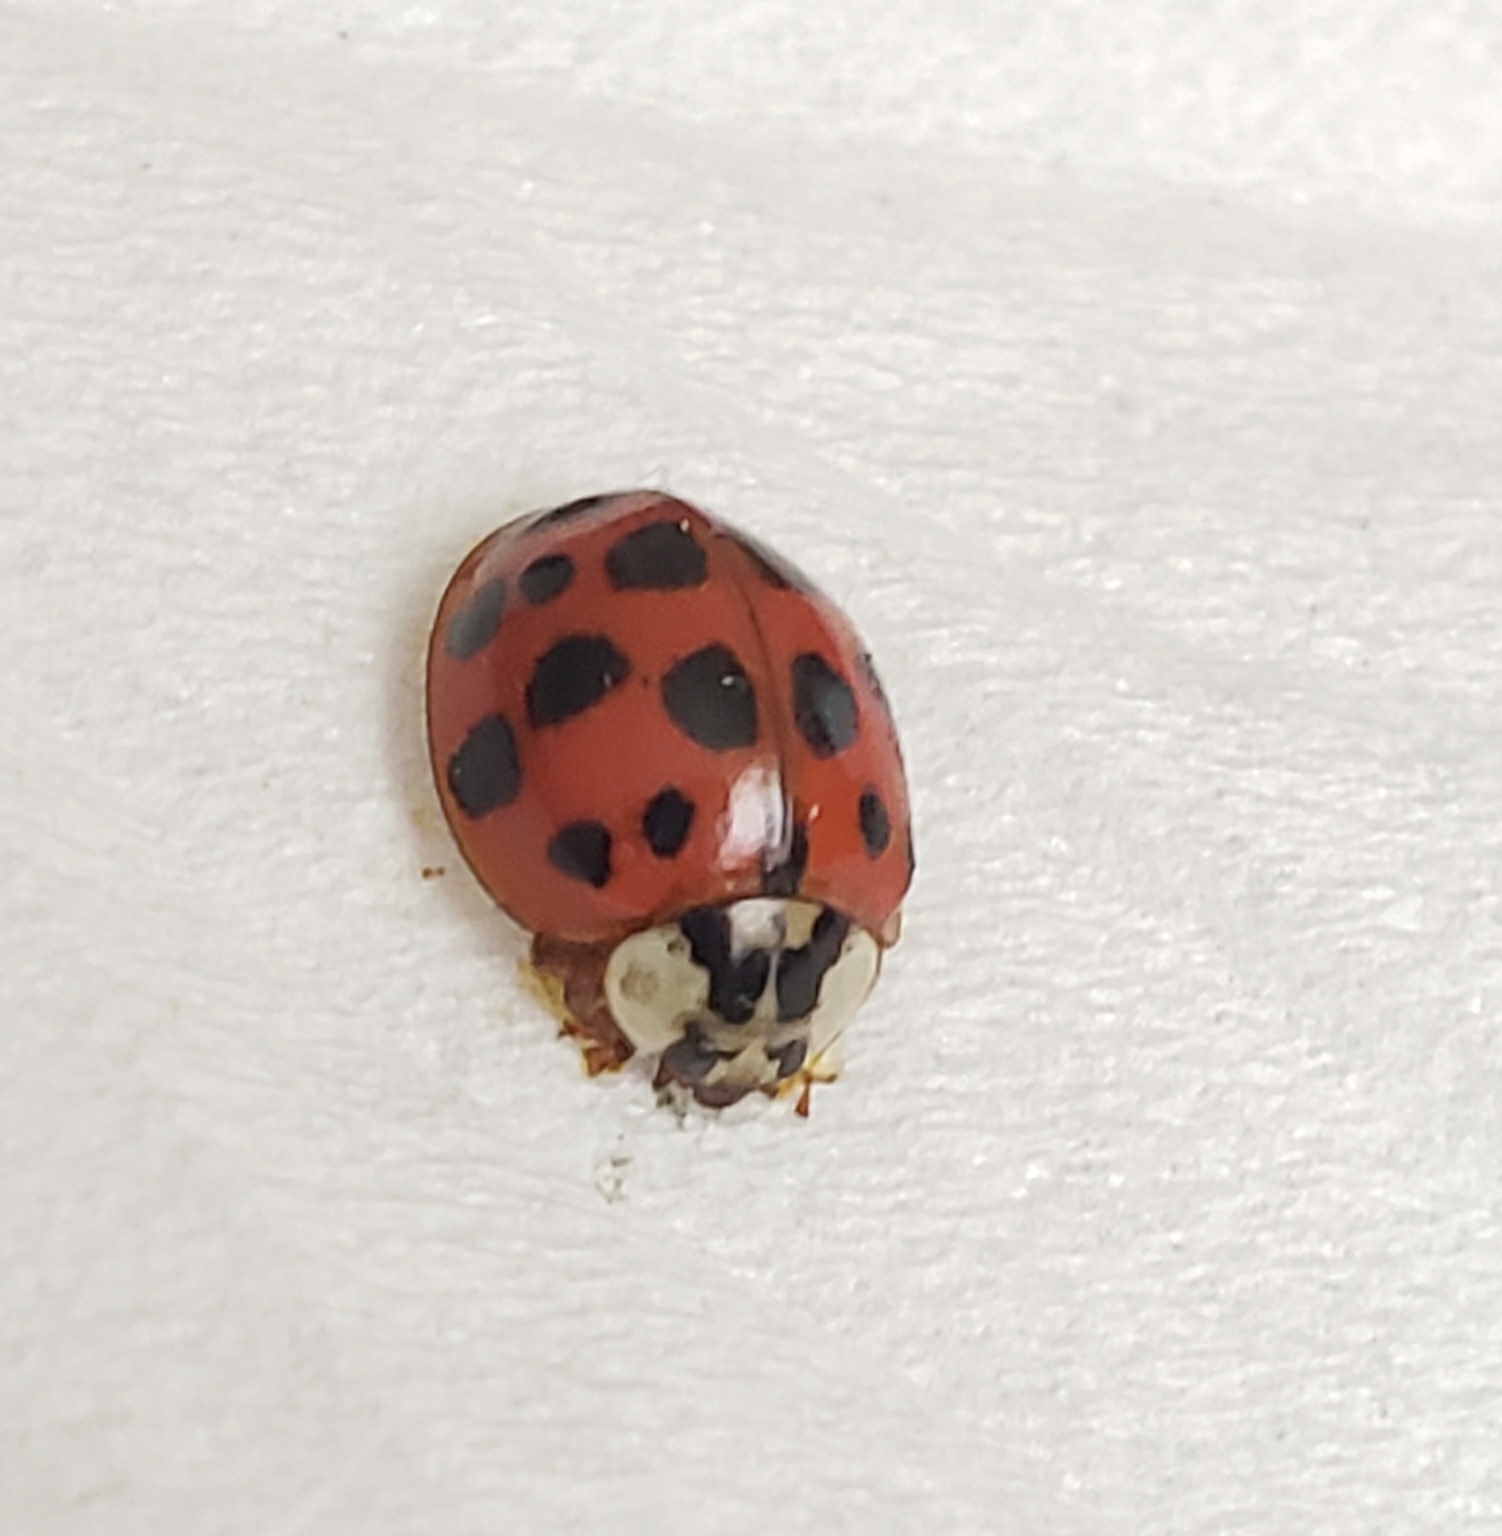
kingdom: Animalia
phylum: Arthropoda
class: Insecta
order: Coleoptera
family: Coccinellidae
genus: Harmonia
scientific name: Harmonia axyridis
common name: Harlequin ladybird
